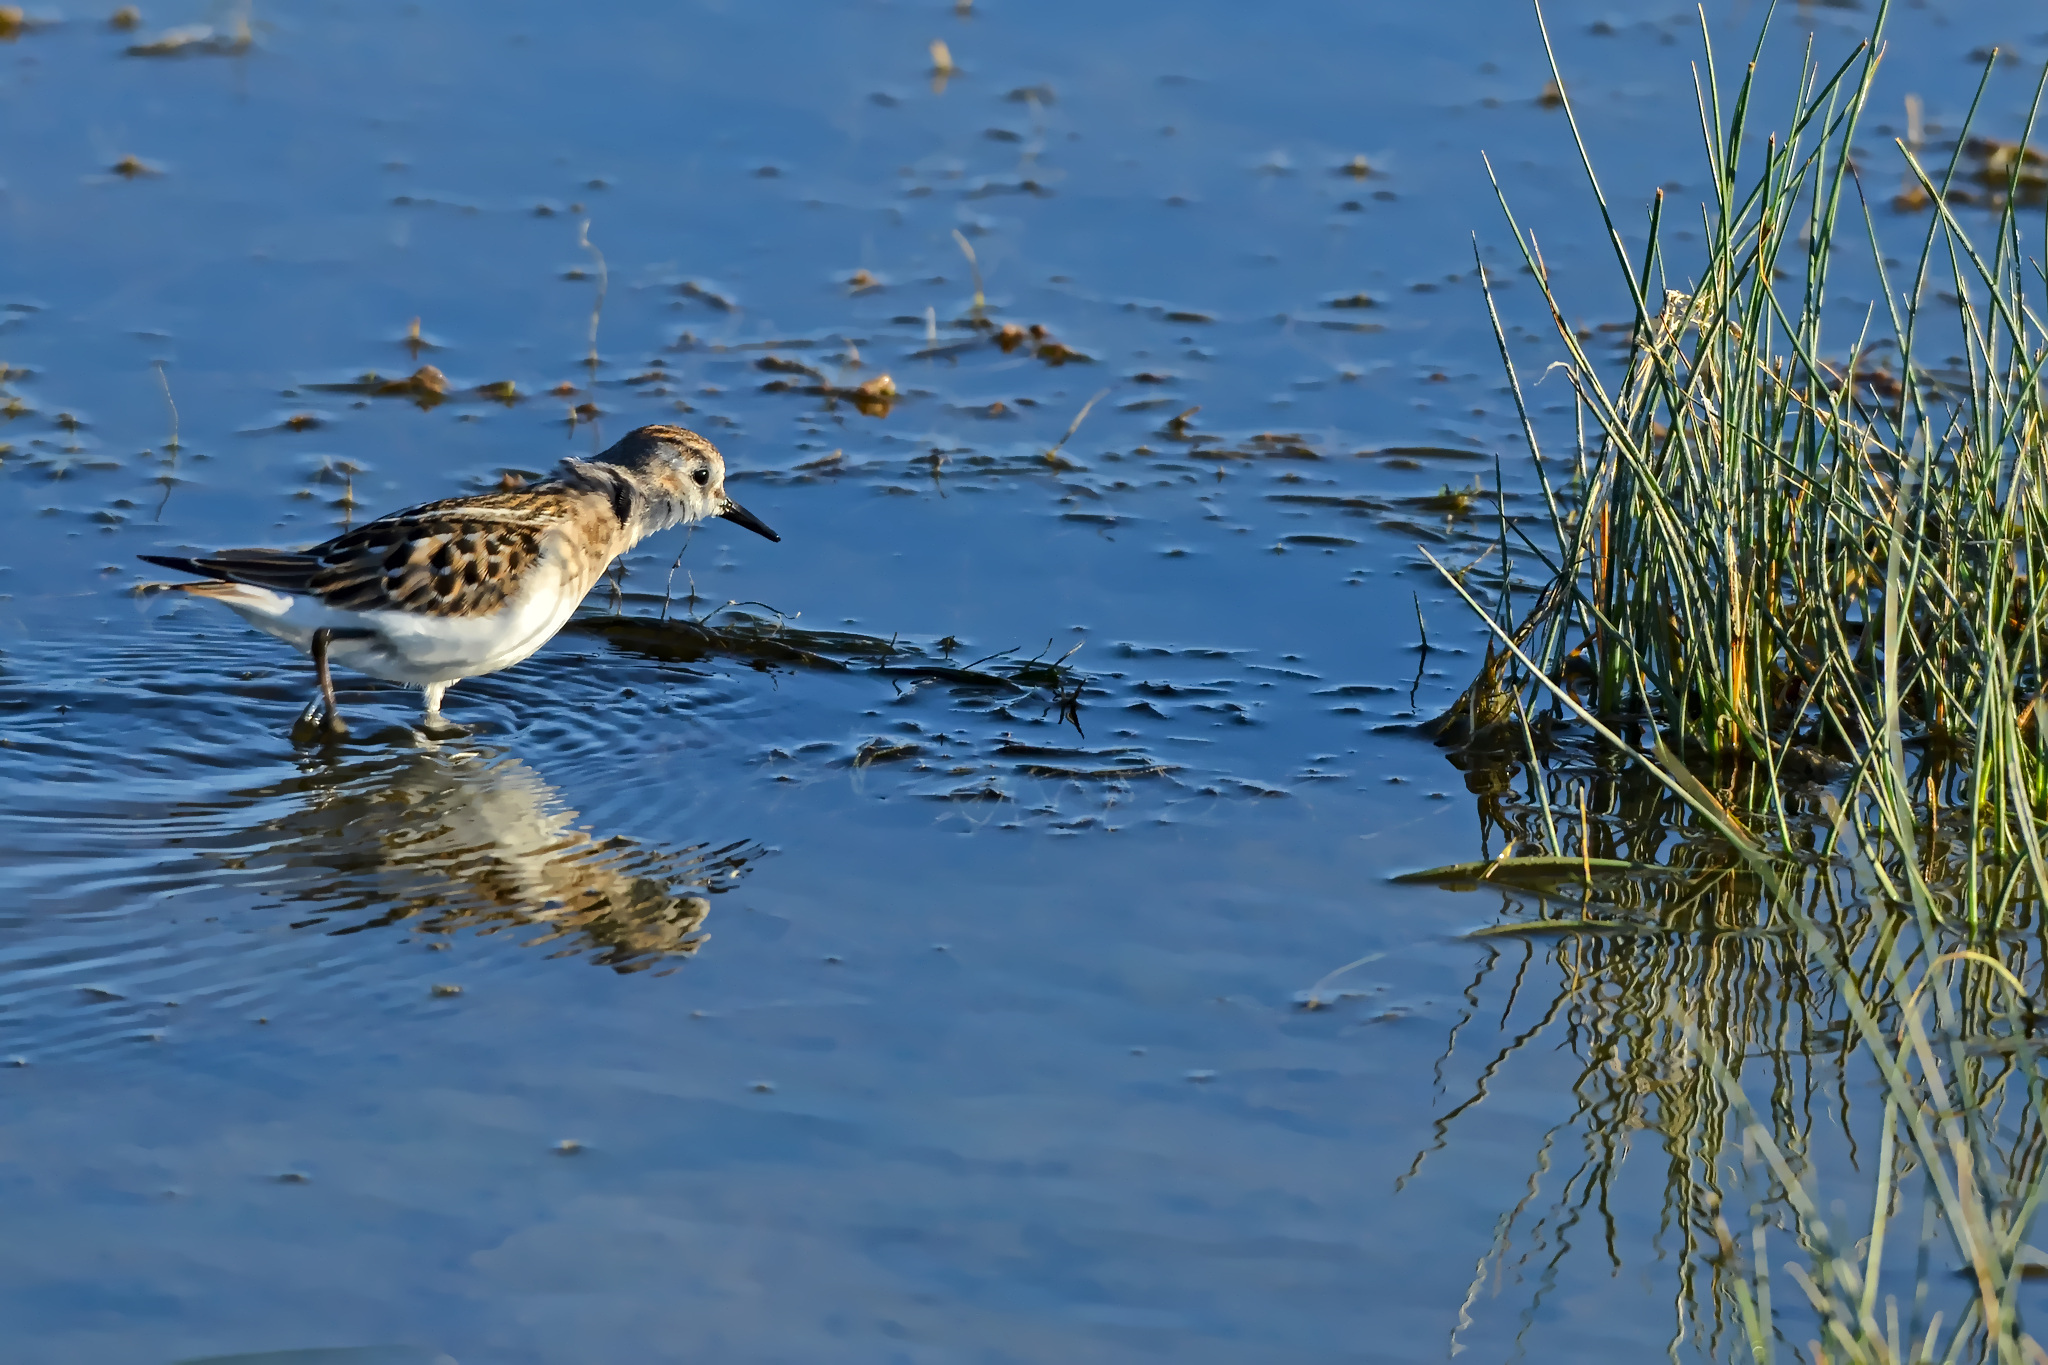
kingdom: Animalia
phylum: Chordata
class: Aves
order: Charadriiformes
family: Scolopacidae
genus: Calidris
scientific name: Calidris minuta
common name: Little stint
